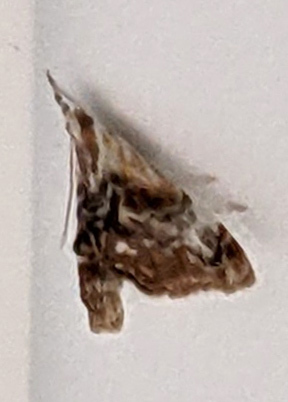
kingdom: Animalia
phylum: Arthropoda
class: Insecta
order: Lepidoptera
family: Crambidae
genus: Dicymolomia
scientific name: Dicymolomia julianalis
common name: Julia's dicymolomia moth
